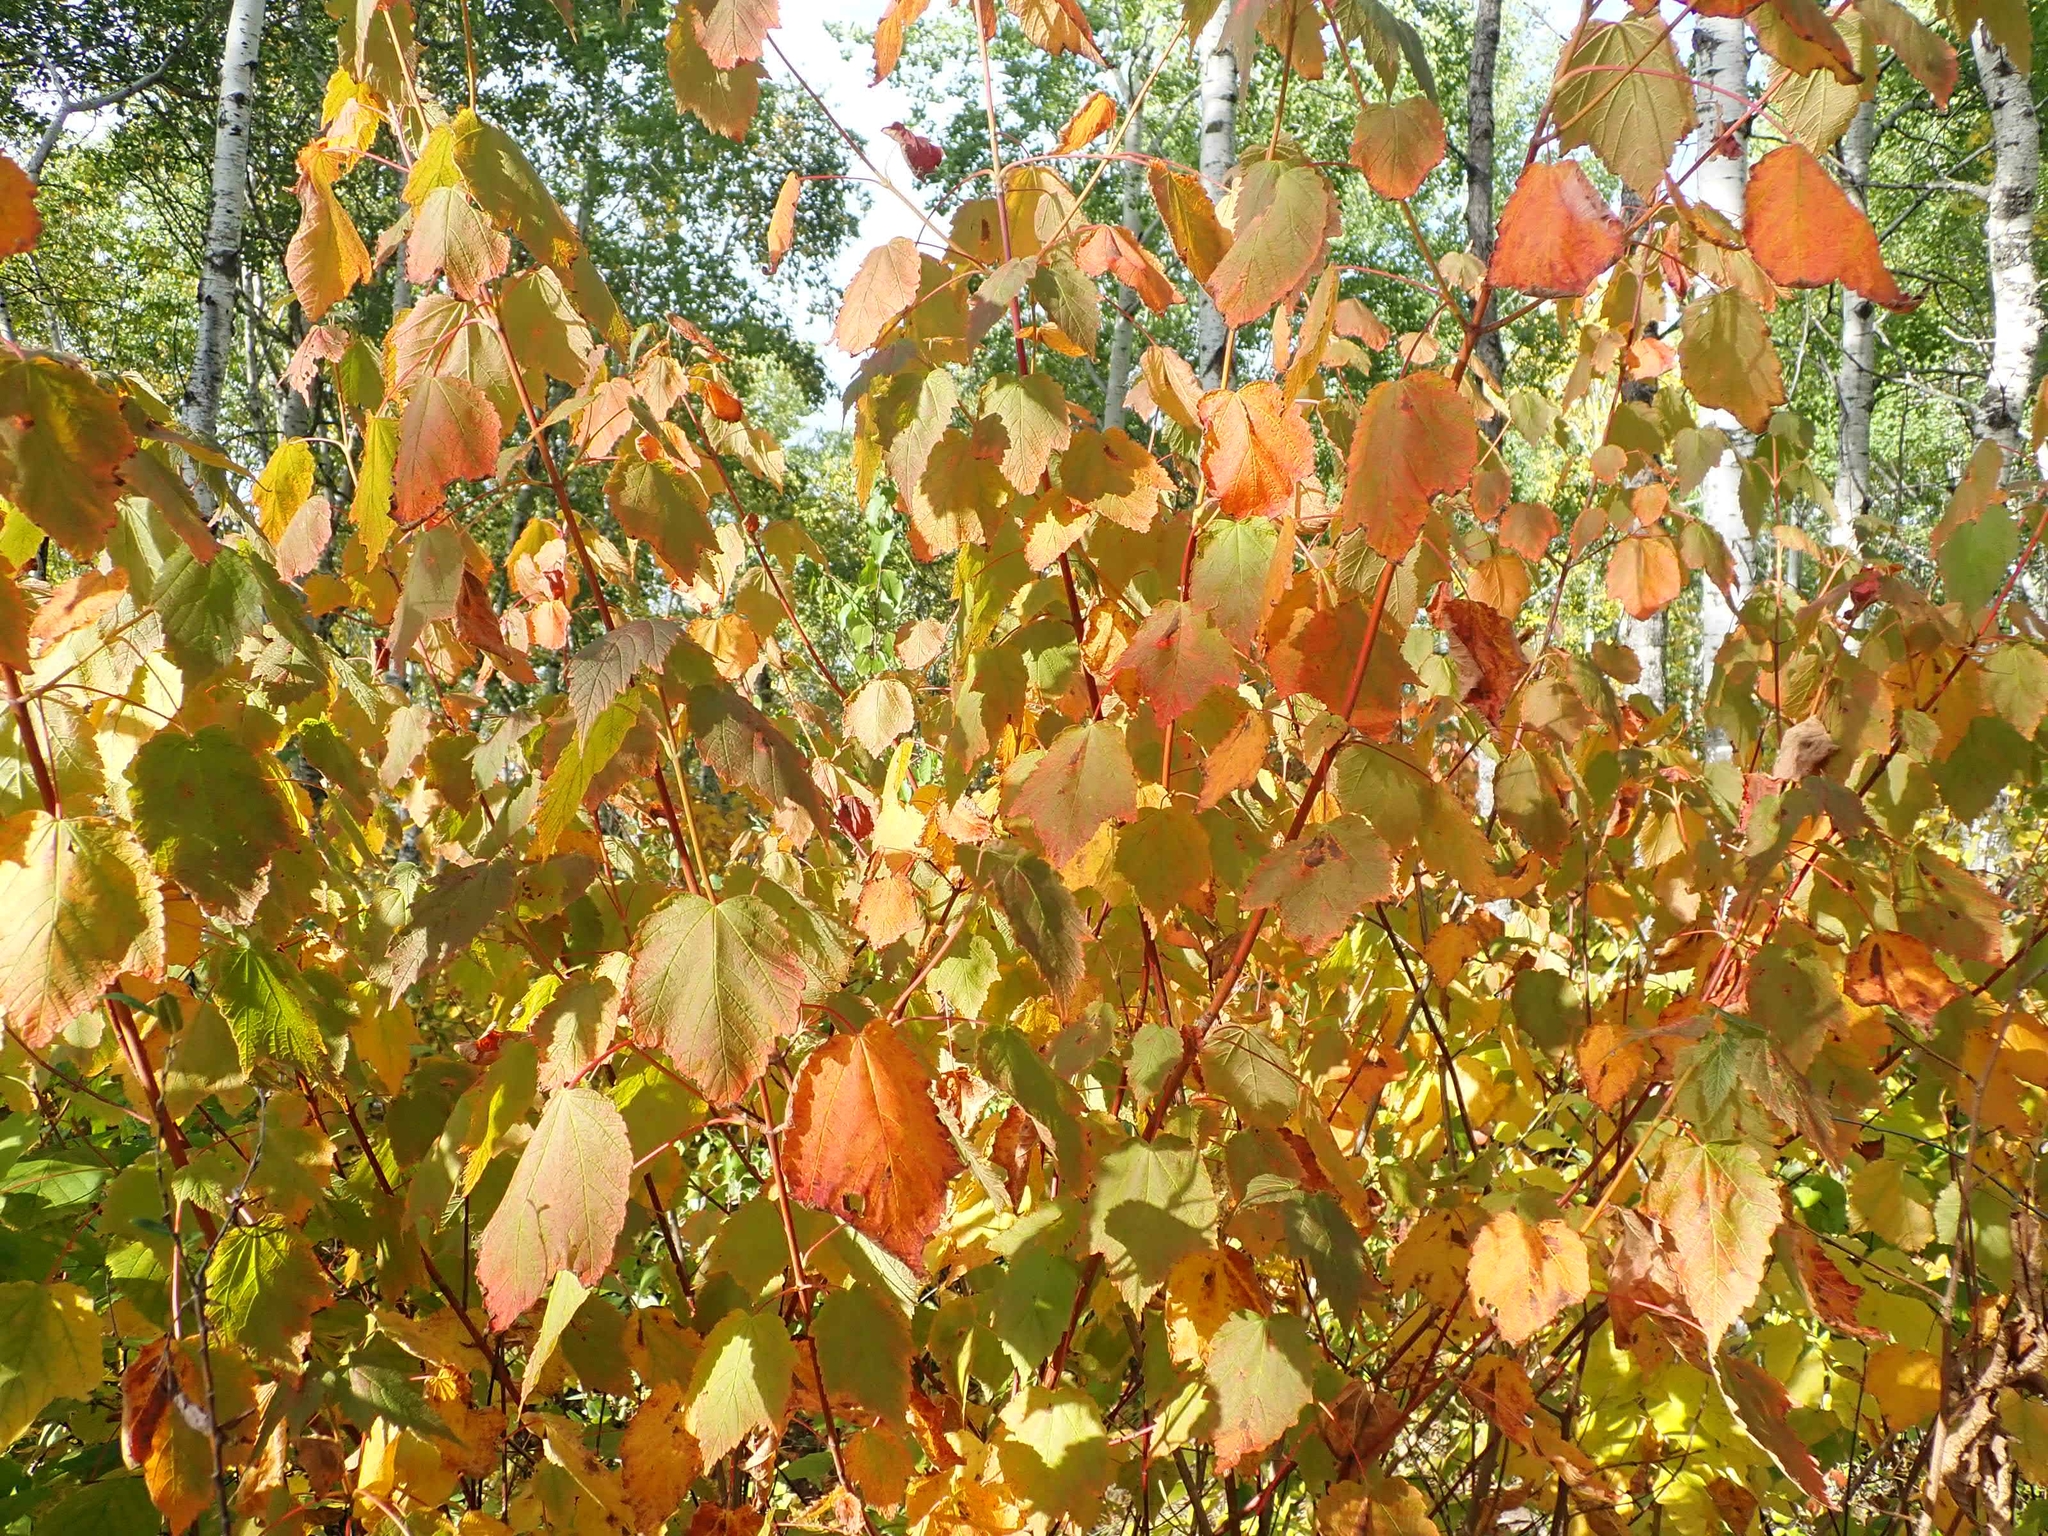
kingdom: Plantae
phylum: Tracheophyta
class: Magnoliopsida
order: Sapindales
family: Sapindaceae
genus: Acer
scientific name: Acer spicatum
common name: Mountain maple
